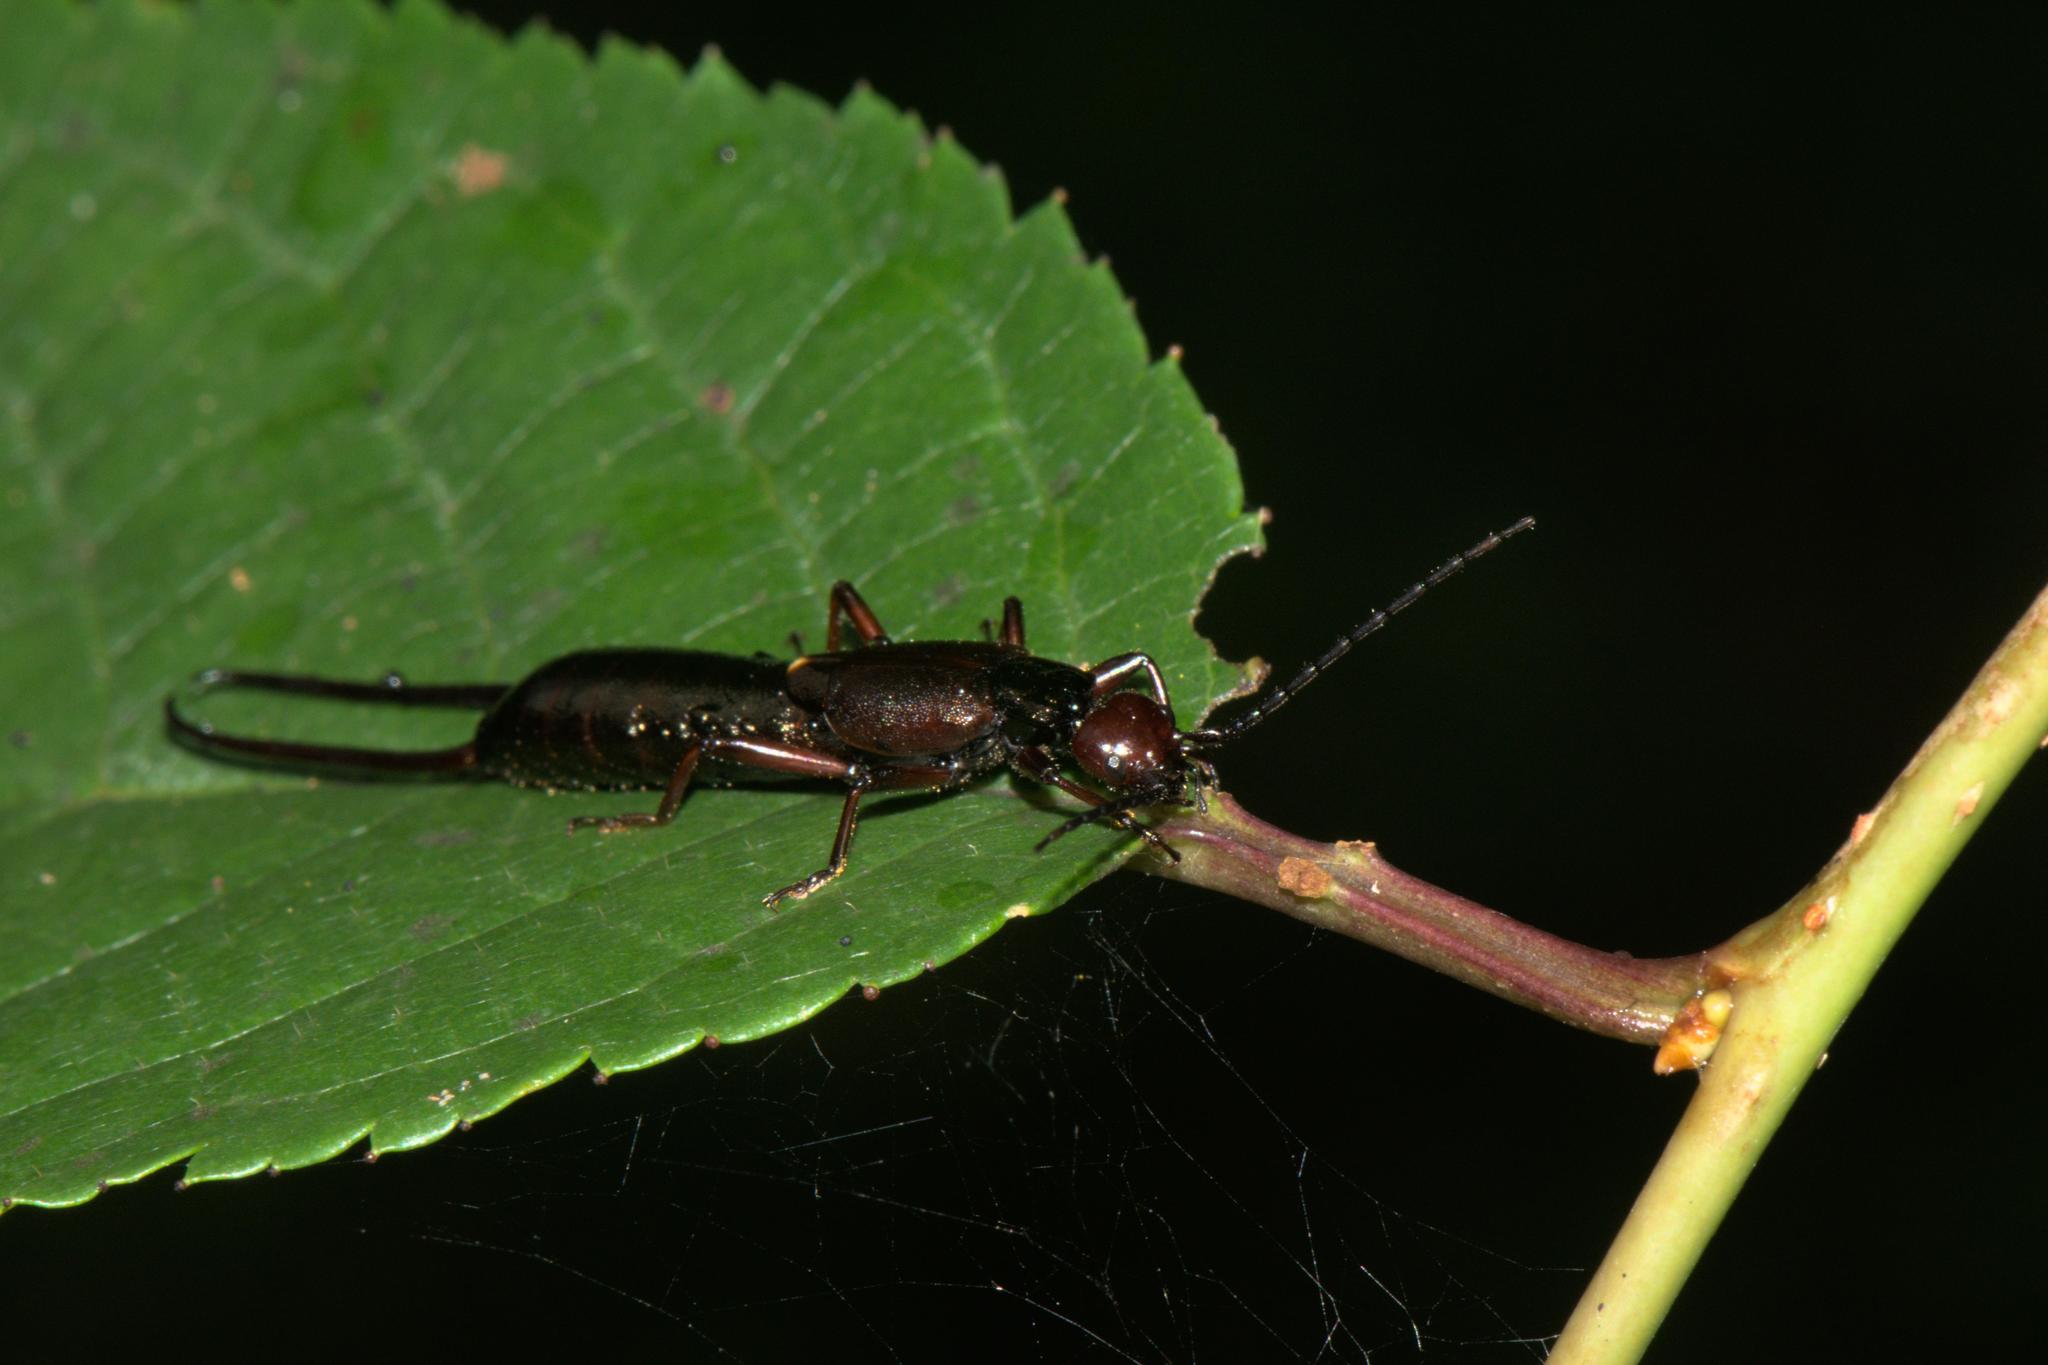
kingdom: Animalia
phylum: Arthropoda
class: Insecta
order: Dermaptera
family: Forficulidae
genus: Eudohrnia
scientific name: Eudohrnia metallica
